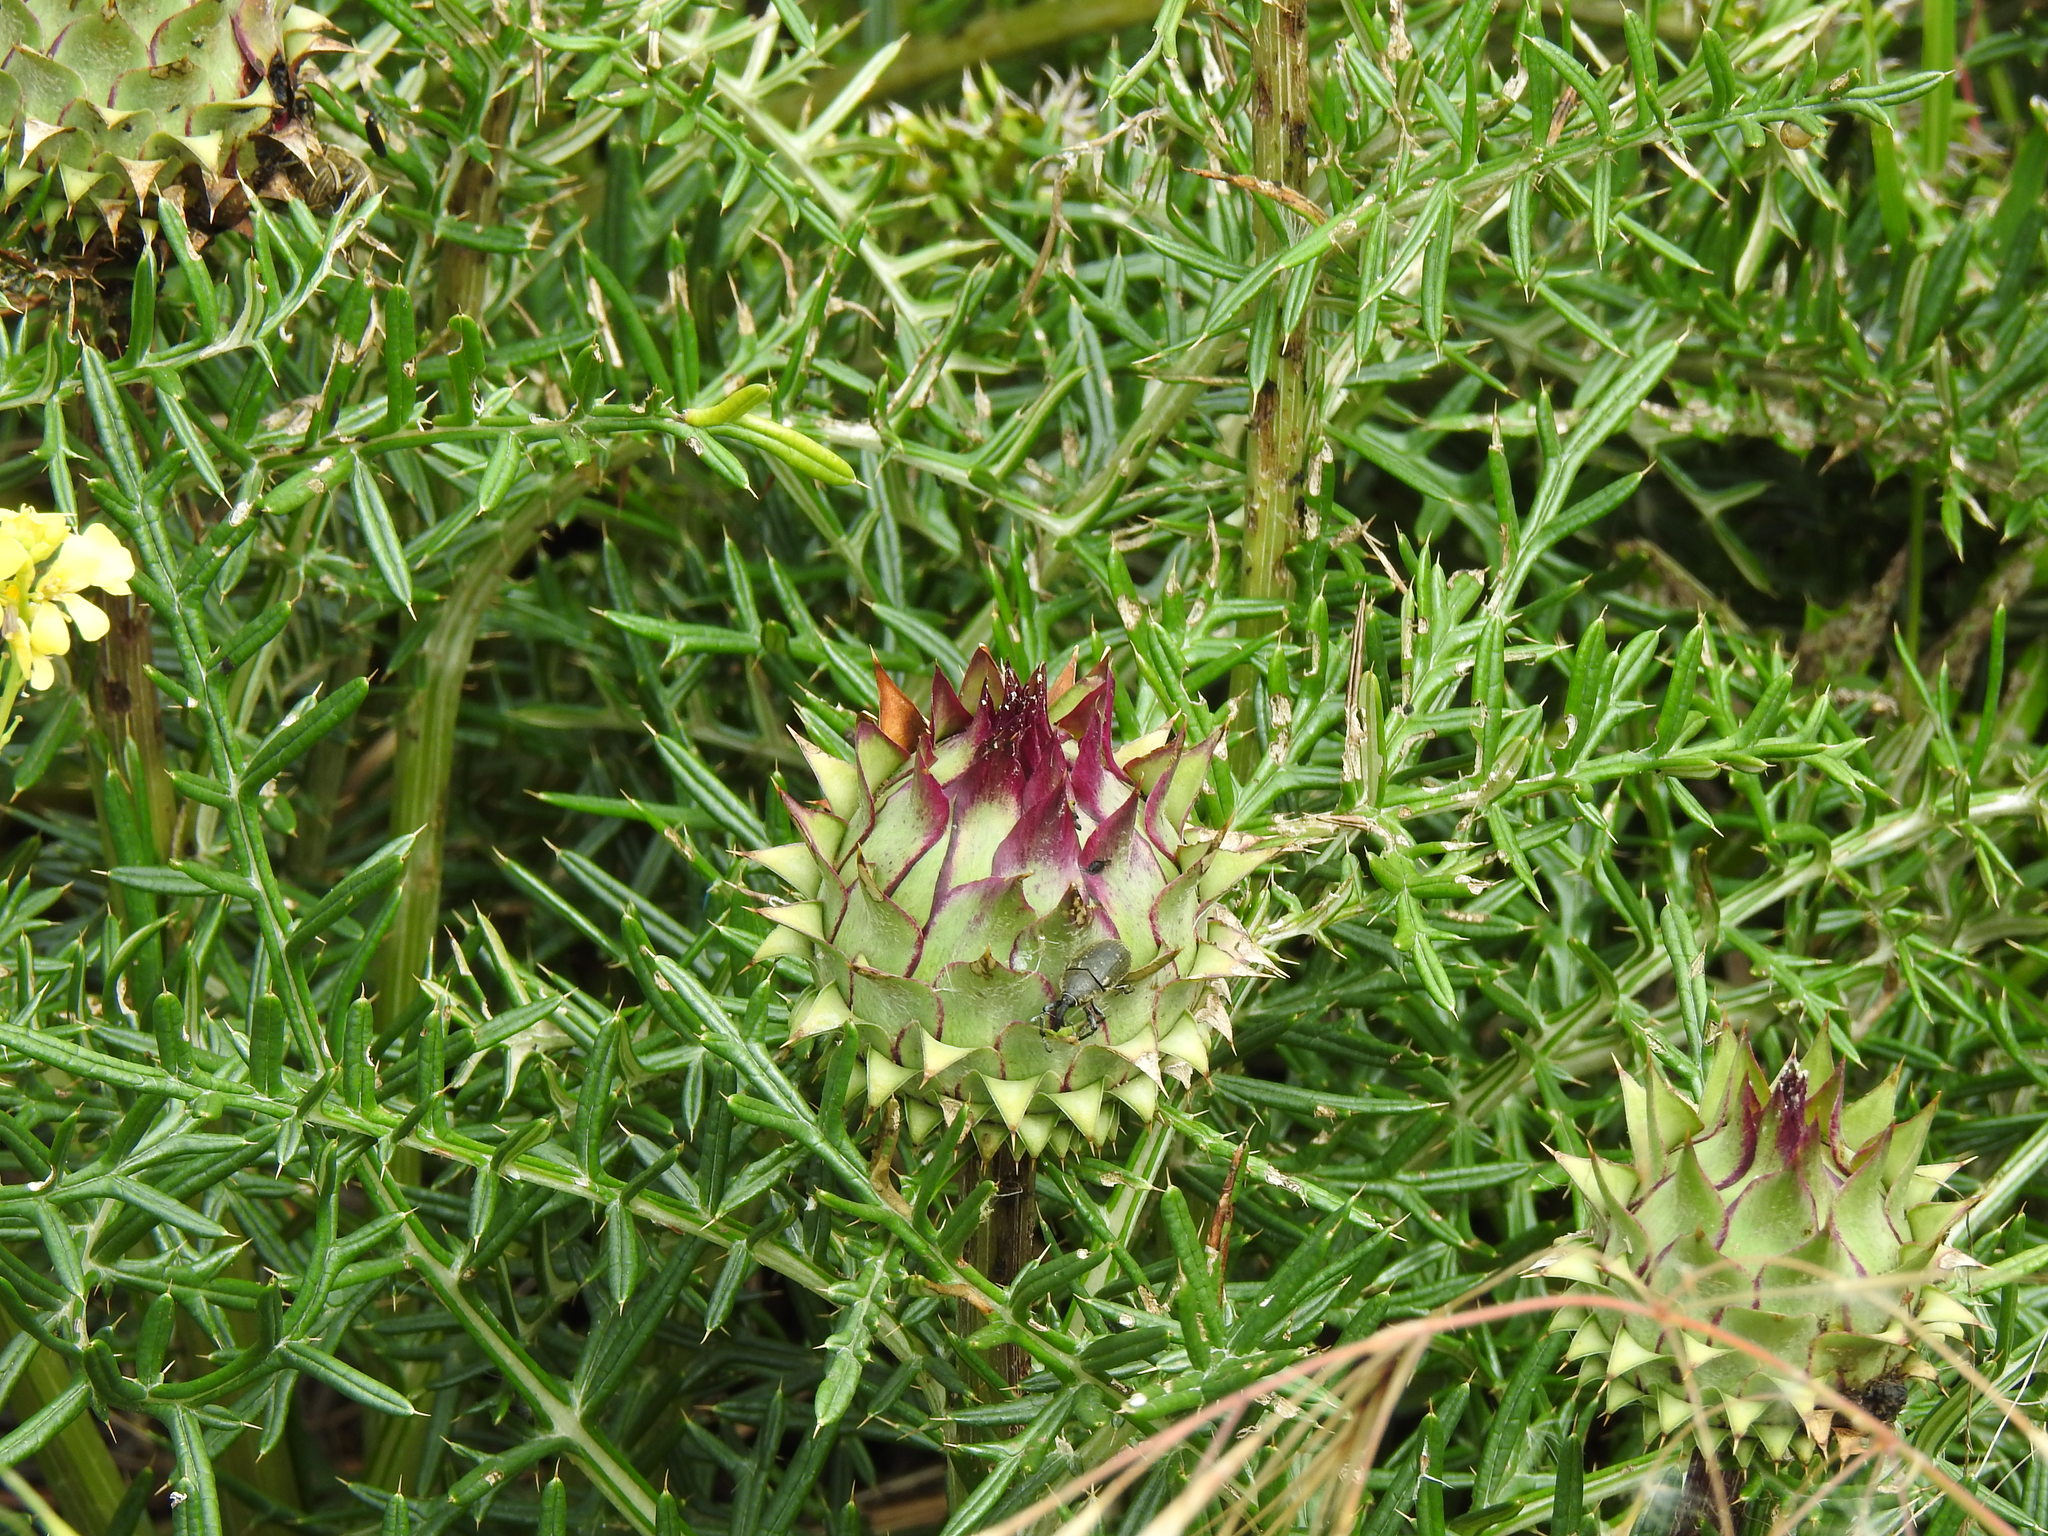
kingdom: Plantae
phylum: Tracheophyta
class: Magnoliopsida
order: Asterales
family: Asteraceae
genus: Cynara
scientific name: Cynara humilis
